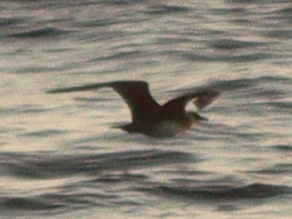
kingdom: Animalia
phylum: Chordata
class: Aves
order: Charadriiformes
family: Stercorariidae
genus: Stercorarius
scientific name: Stercorarius parasiticus
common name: Parasitic jaeger
